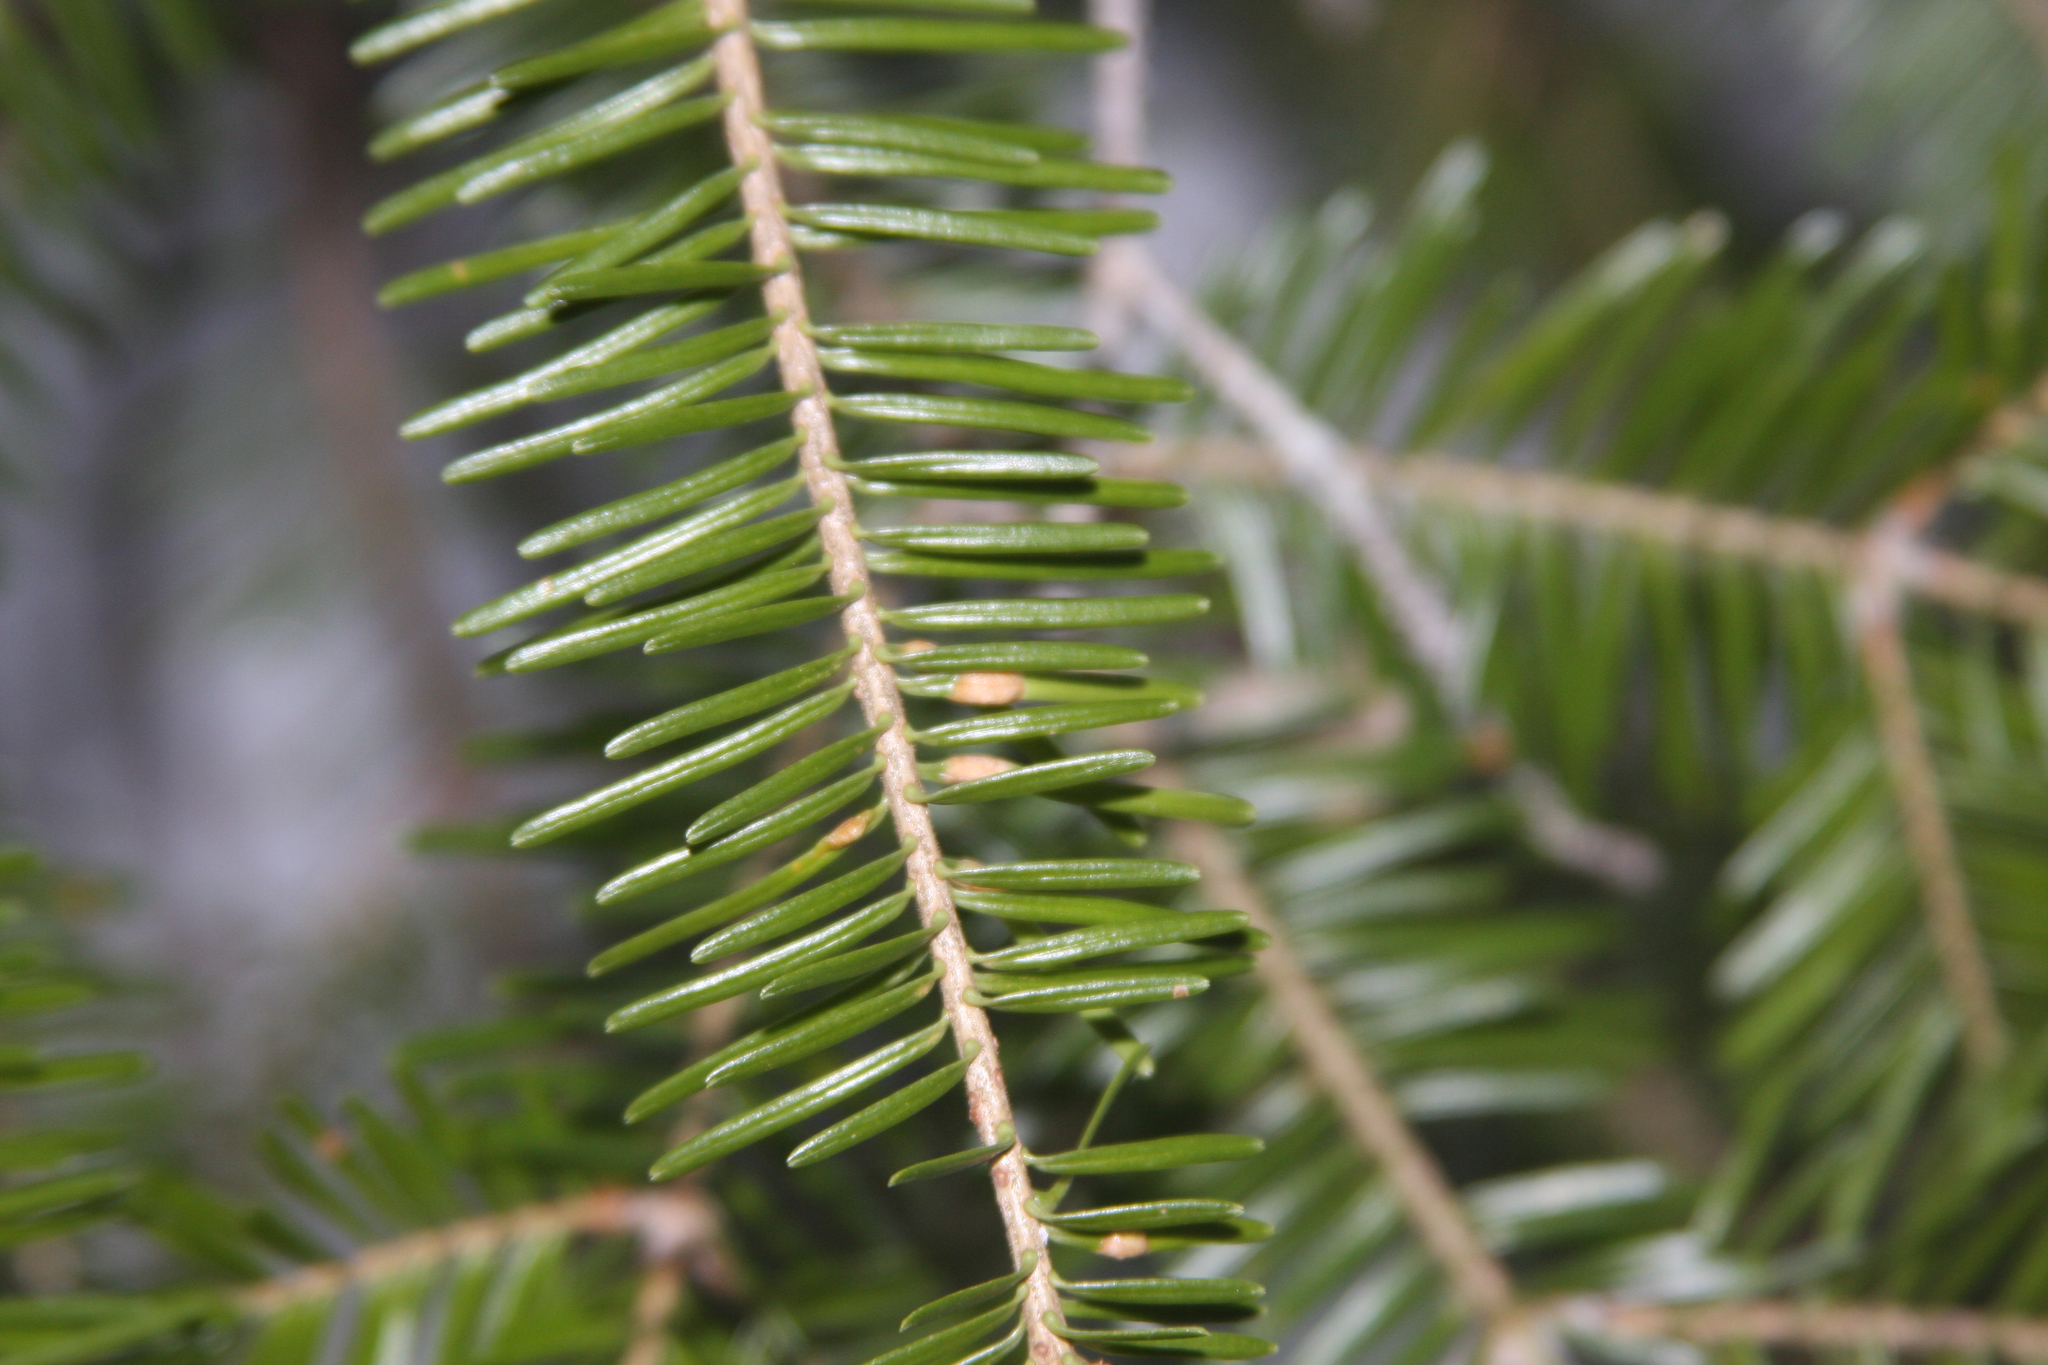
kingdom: Animalia
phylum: Arthropoda
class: Insecta
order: Diptera
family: Cecidomyiidae
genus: Paradiplosis
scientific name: Paradiplosis tumifex
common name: Gall midge
